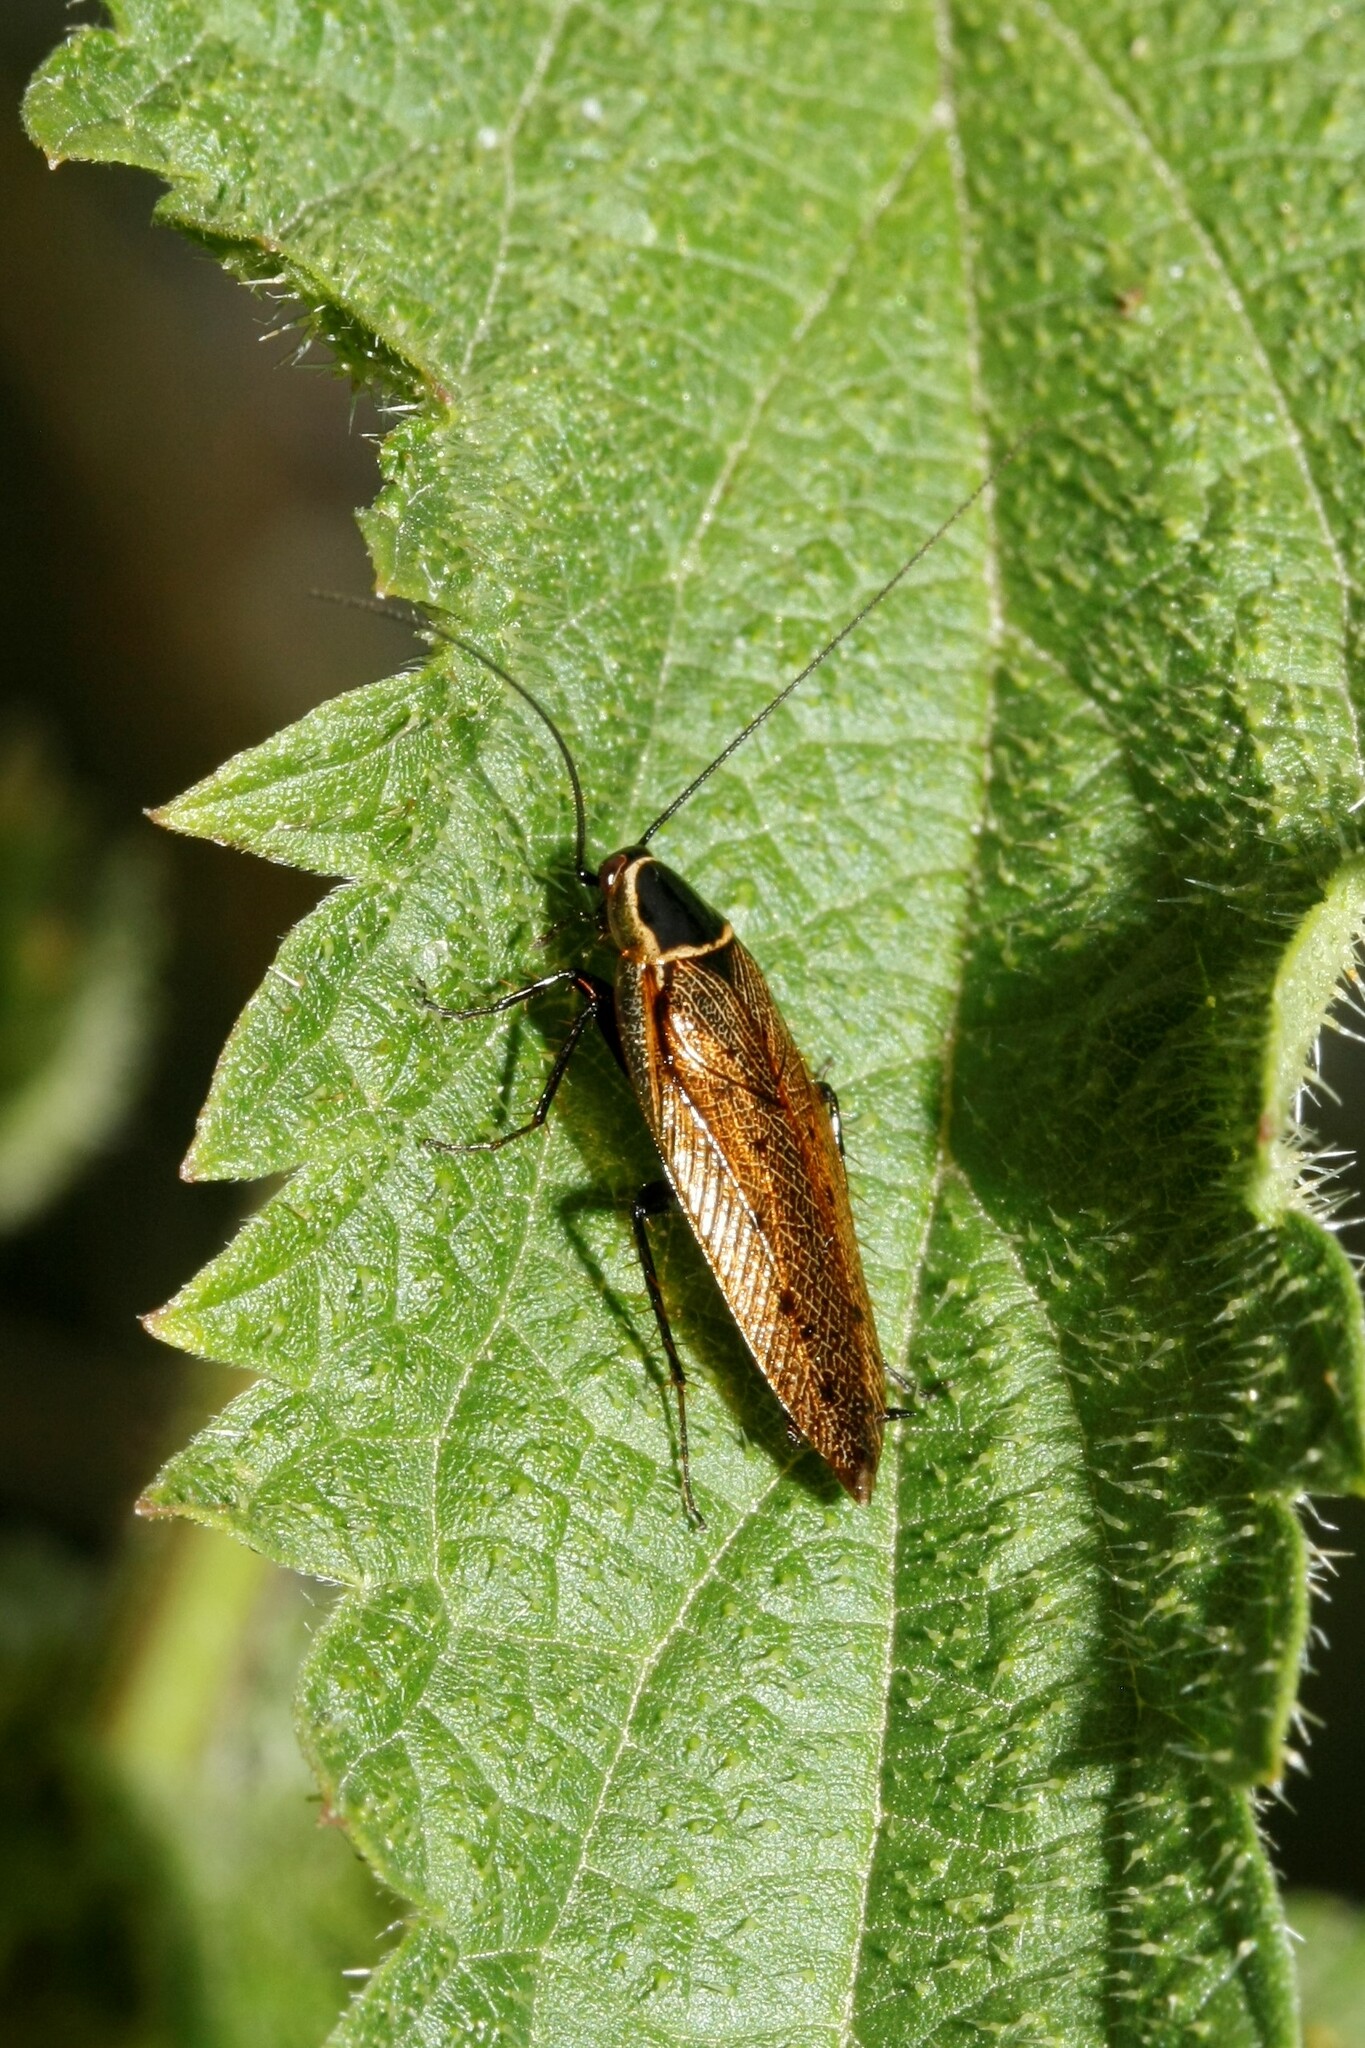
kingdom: Animalia
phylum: Arthropoda
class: Insecta
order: Blattodea
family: Ectobiidae
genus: Ectobius
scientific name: Ectobius sylvestris
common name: Forest cockroach
